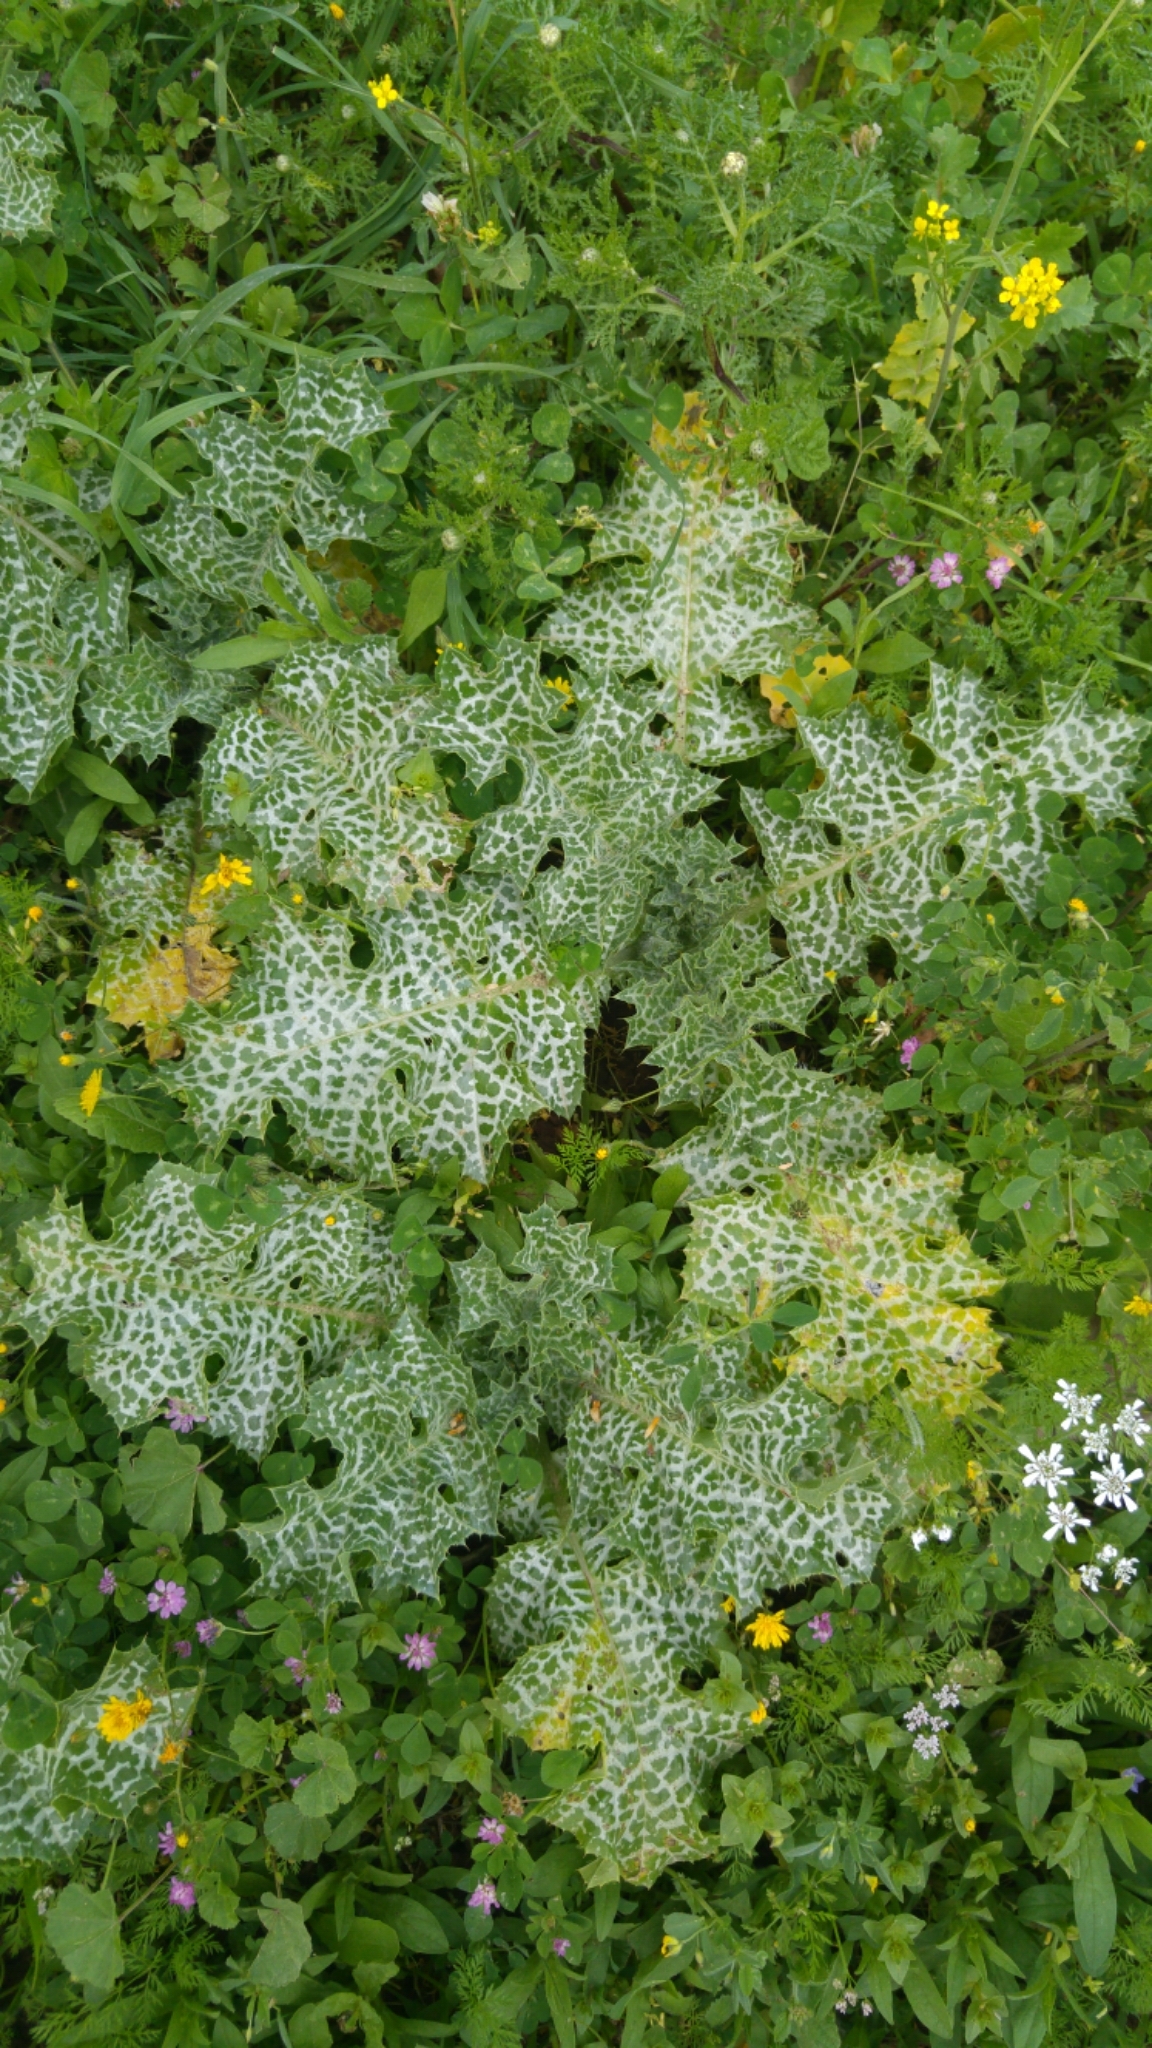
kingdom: Plantae
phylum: Tracheophyta
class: Magnoliopsida
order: Asterales
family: Asteraceae
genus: Silybum
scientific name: Silybum marianum
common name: Milk thistle
